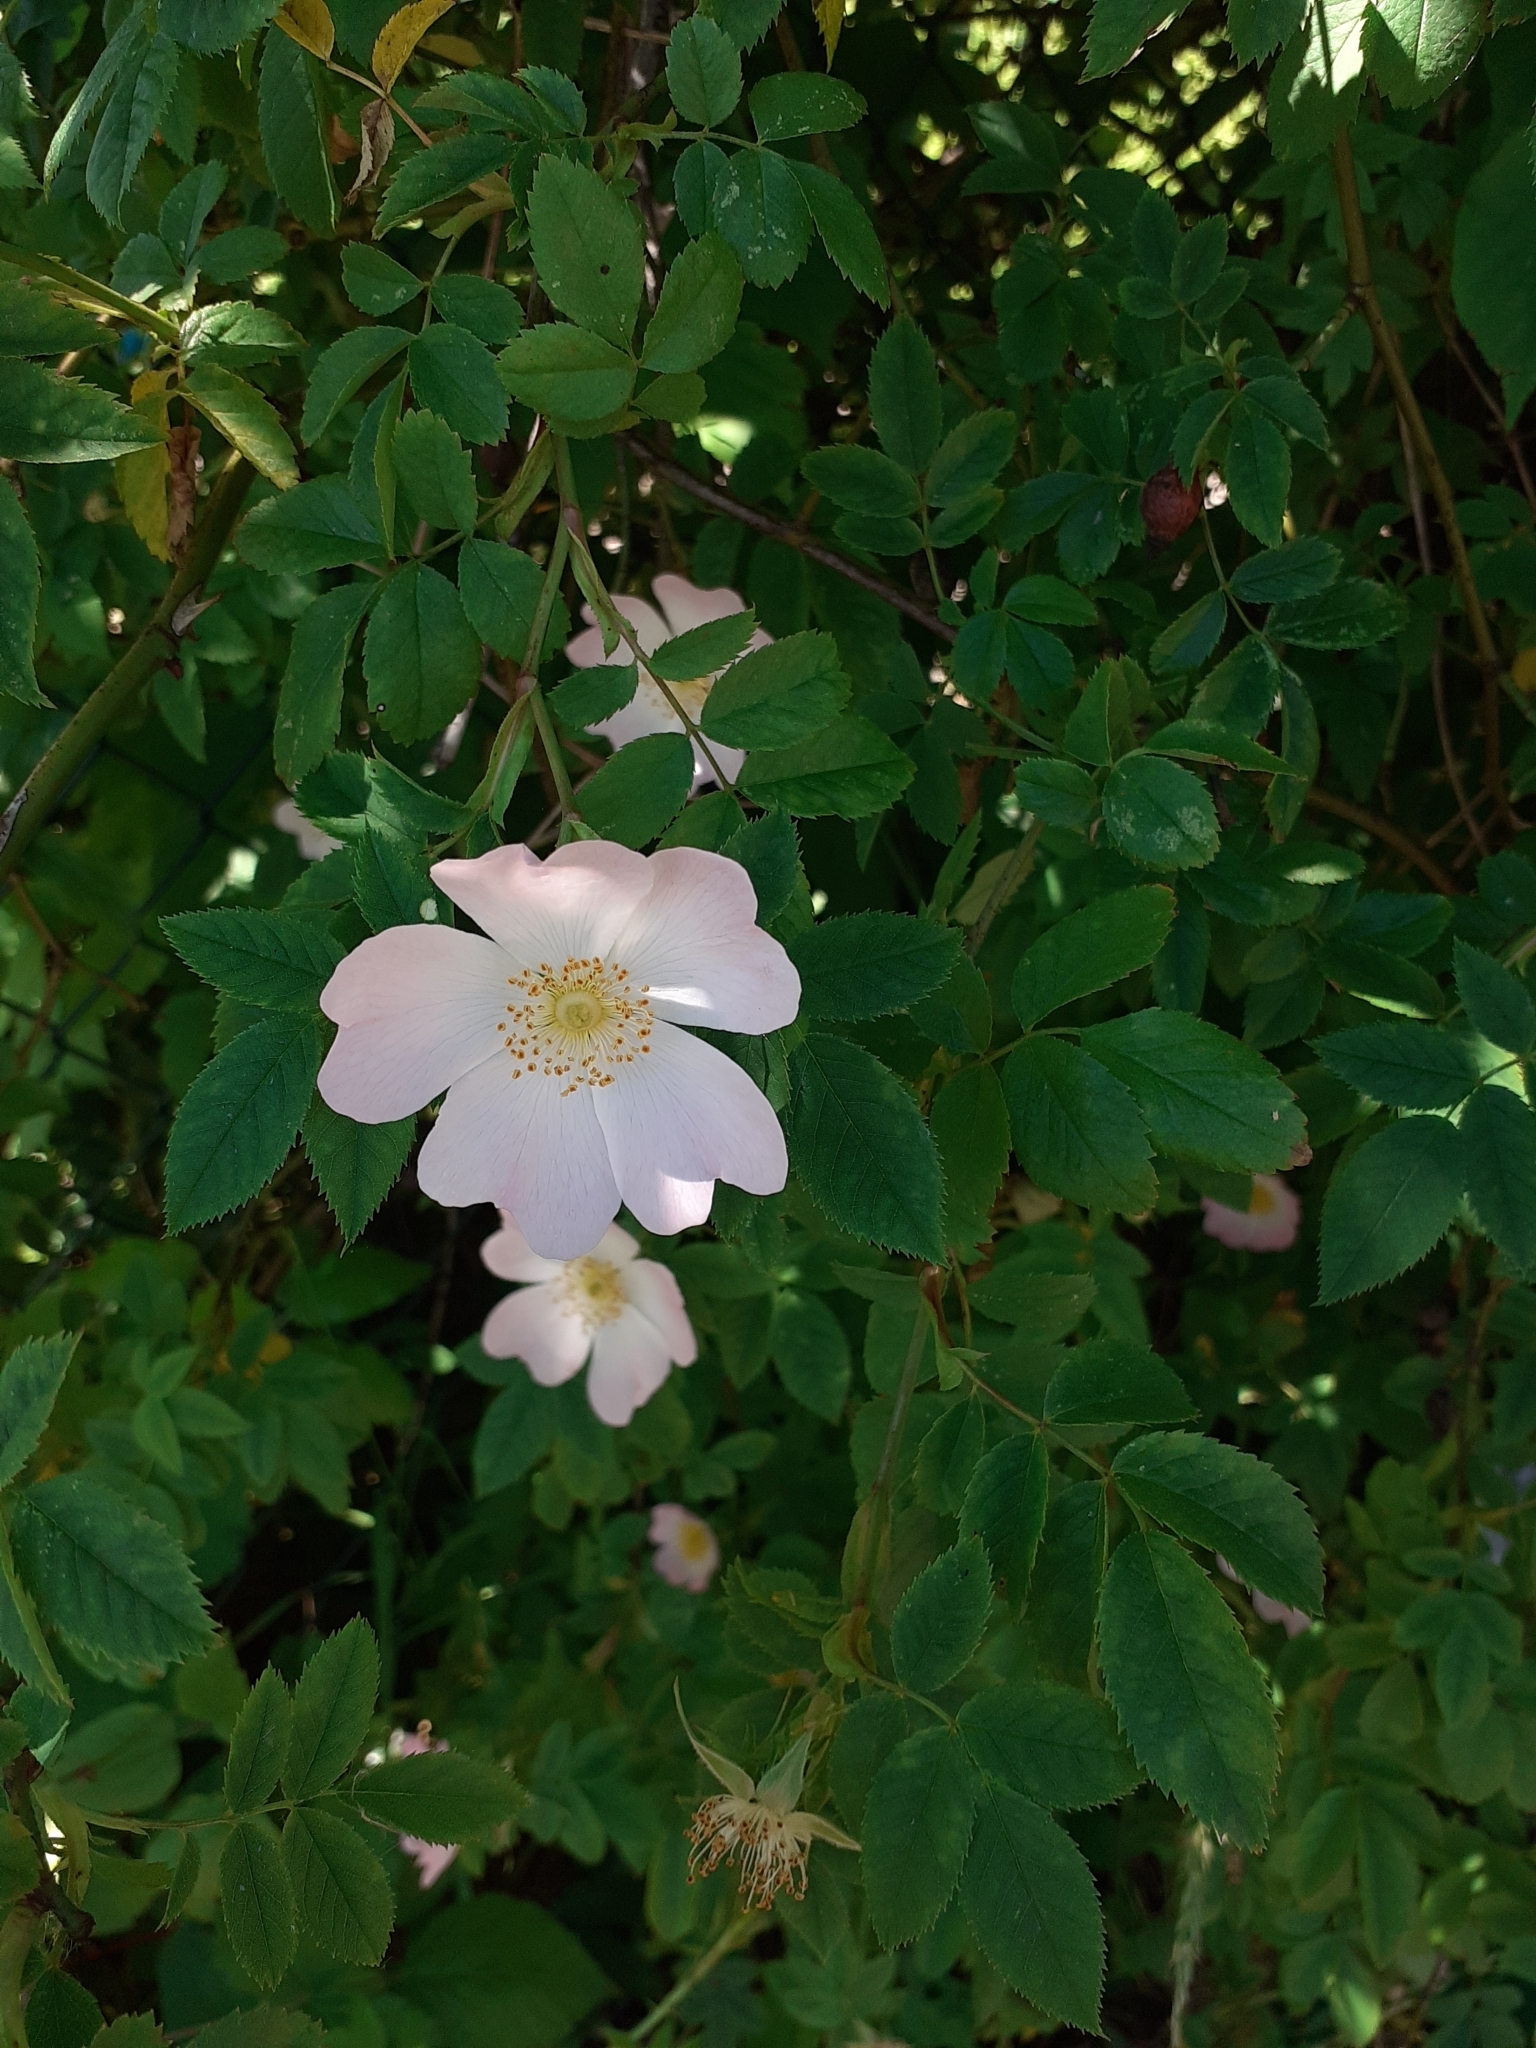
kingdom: Plantae
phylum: Tracheophyta
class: Magnoliopsida
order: Rosales
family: Rosaceae
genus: Rosa
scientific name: Rosa canina
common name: Dog rose
